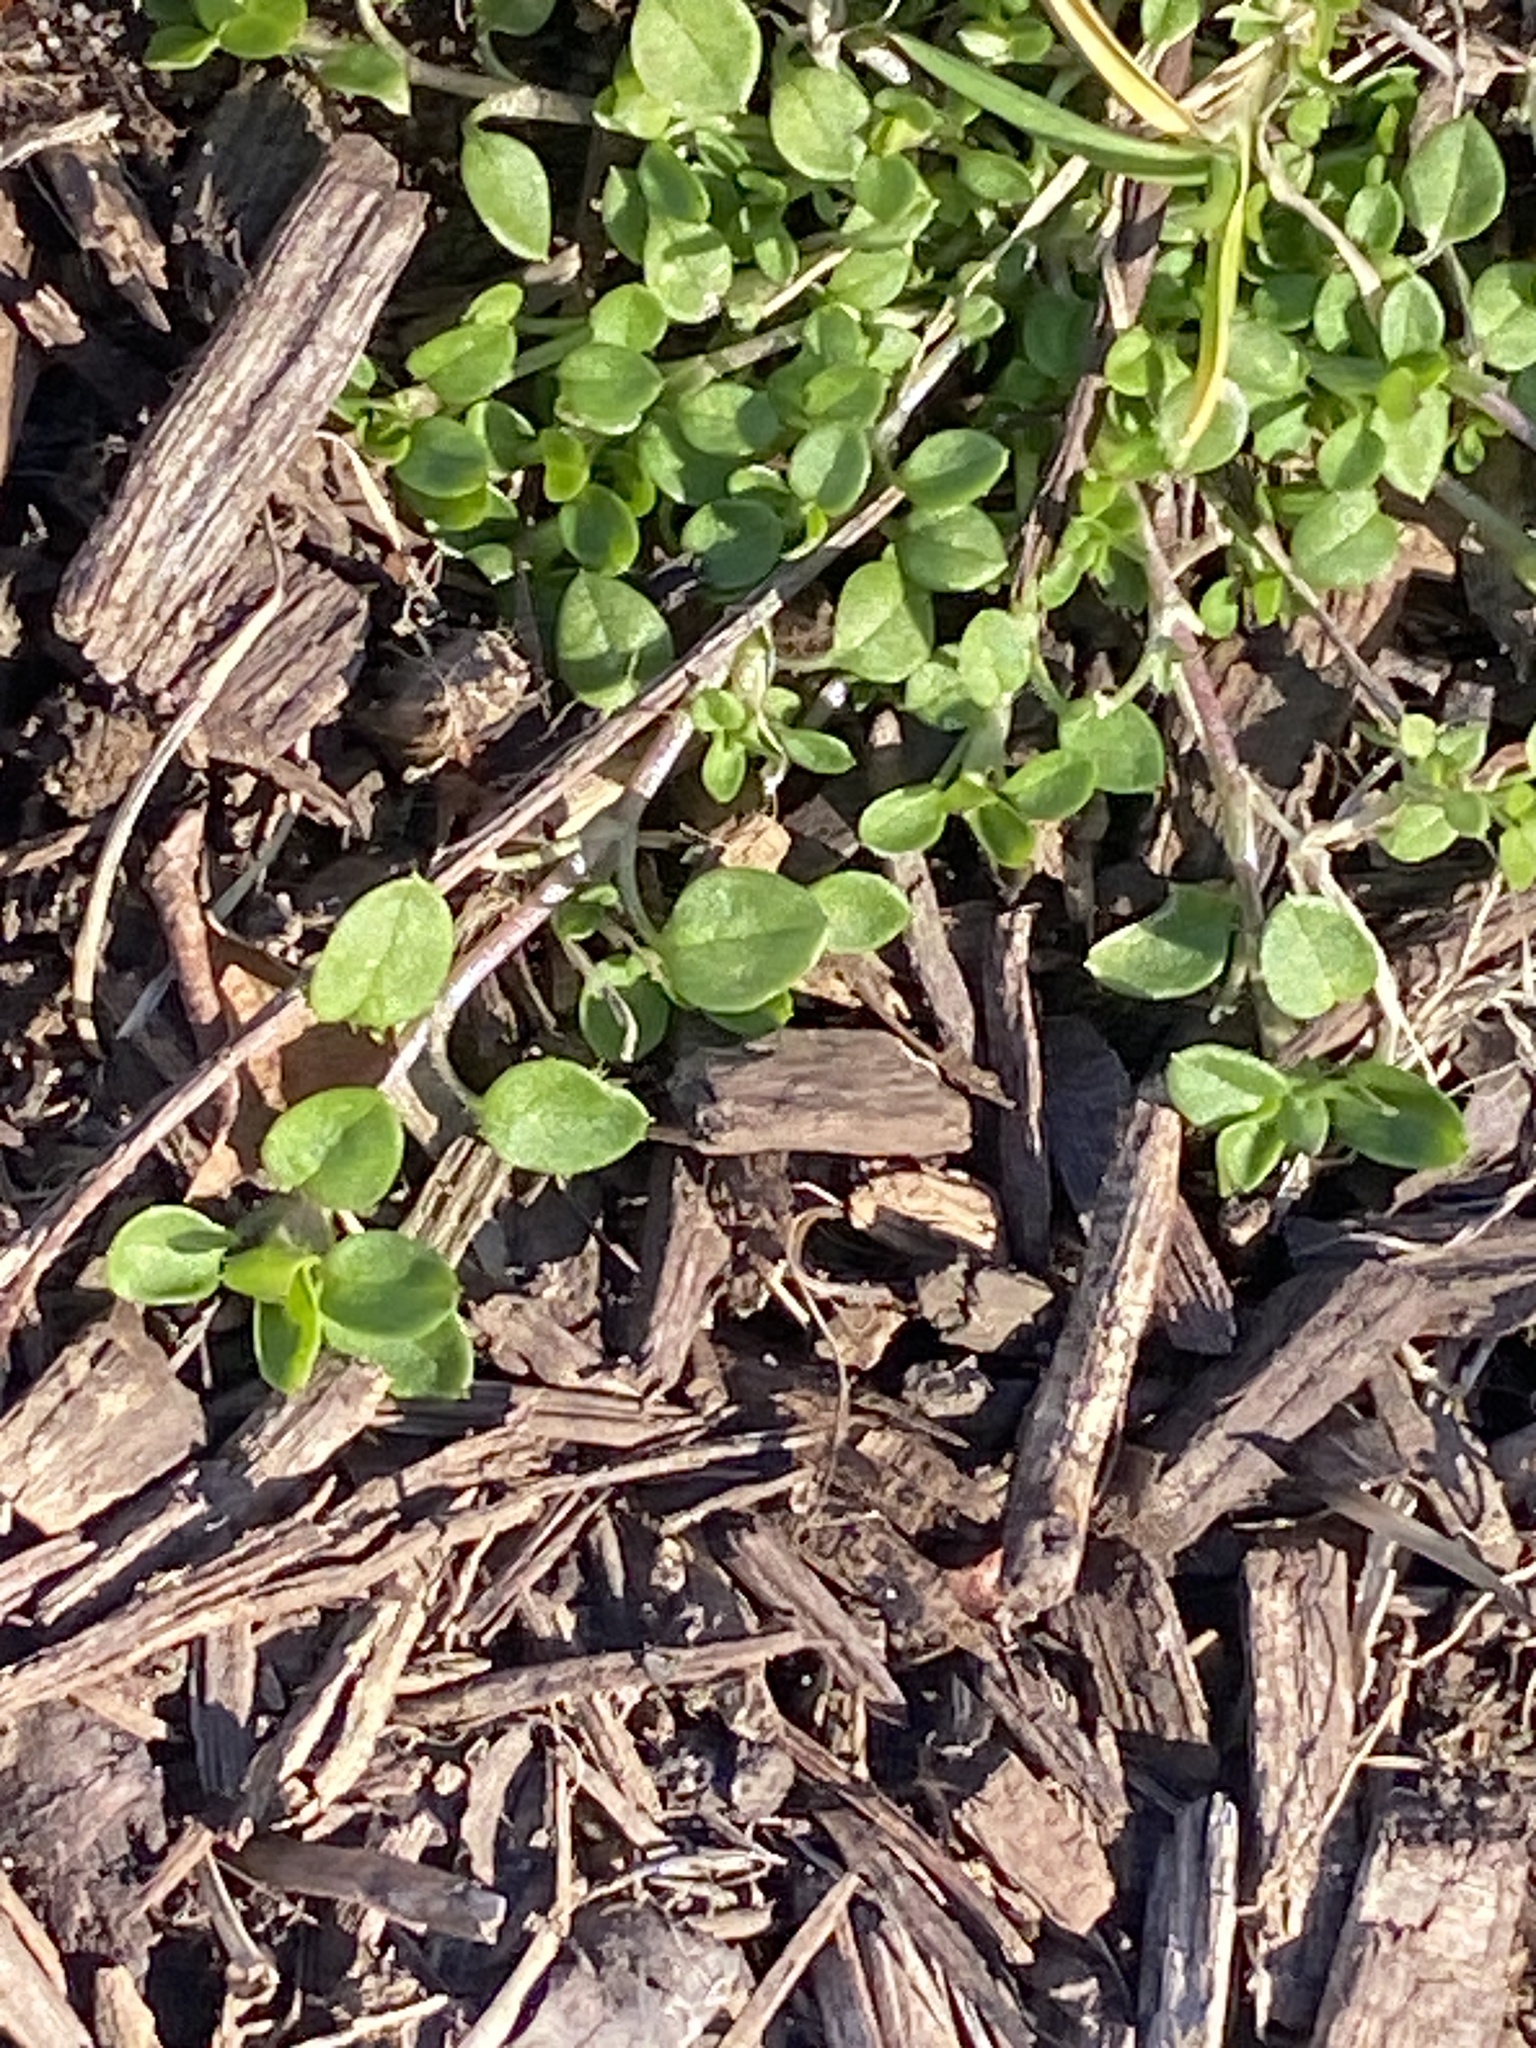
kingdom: Plantae
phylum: Tracheophyta
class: Magnoliopsida
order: Caryophyllales
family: Caryophyllaceae
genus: Stellaria
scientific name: Stellaria media
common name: Common chickweed
